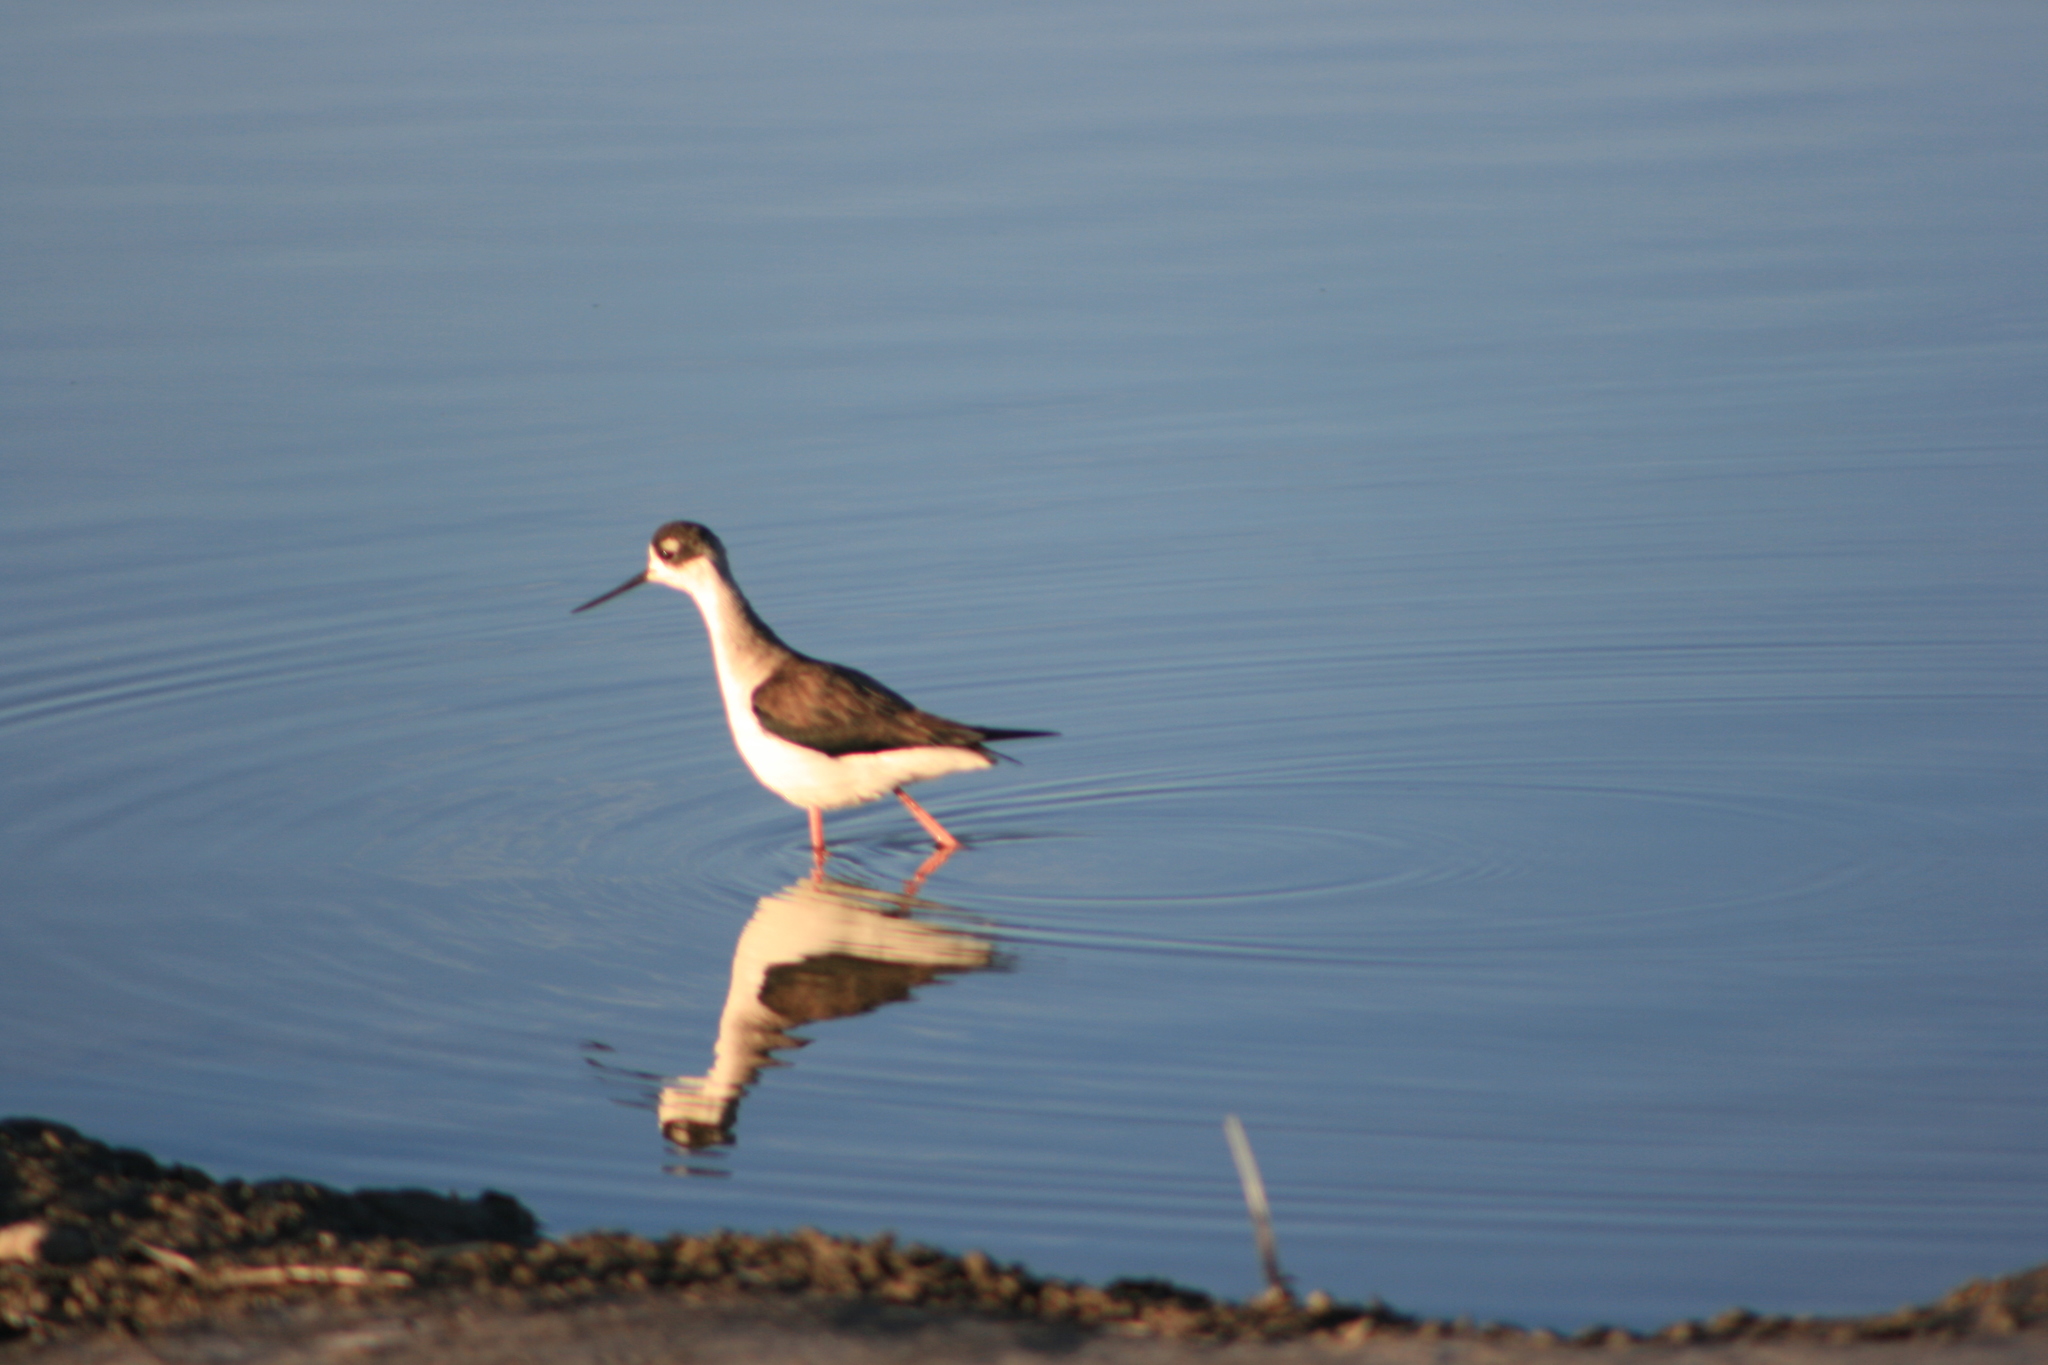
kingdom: Animalia
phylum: Chordata
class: Aves
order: Charadriiformes
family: Recurvirostridae
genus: Himantopus
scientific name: Himantopus mexicanus
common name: Black-necked stilt
